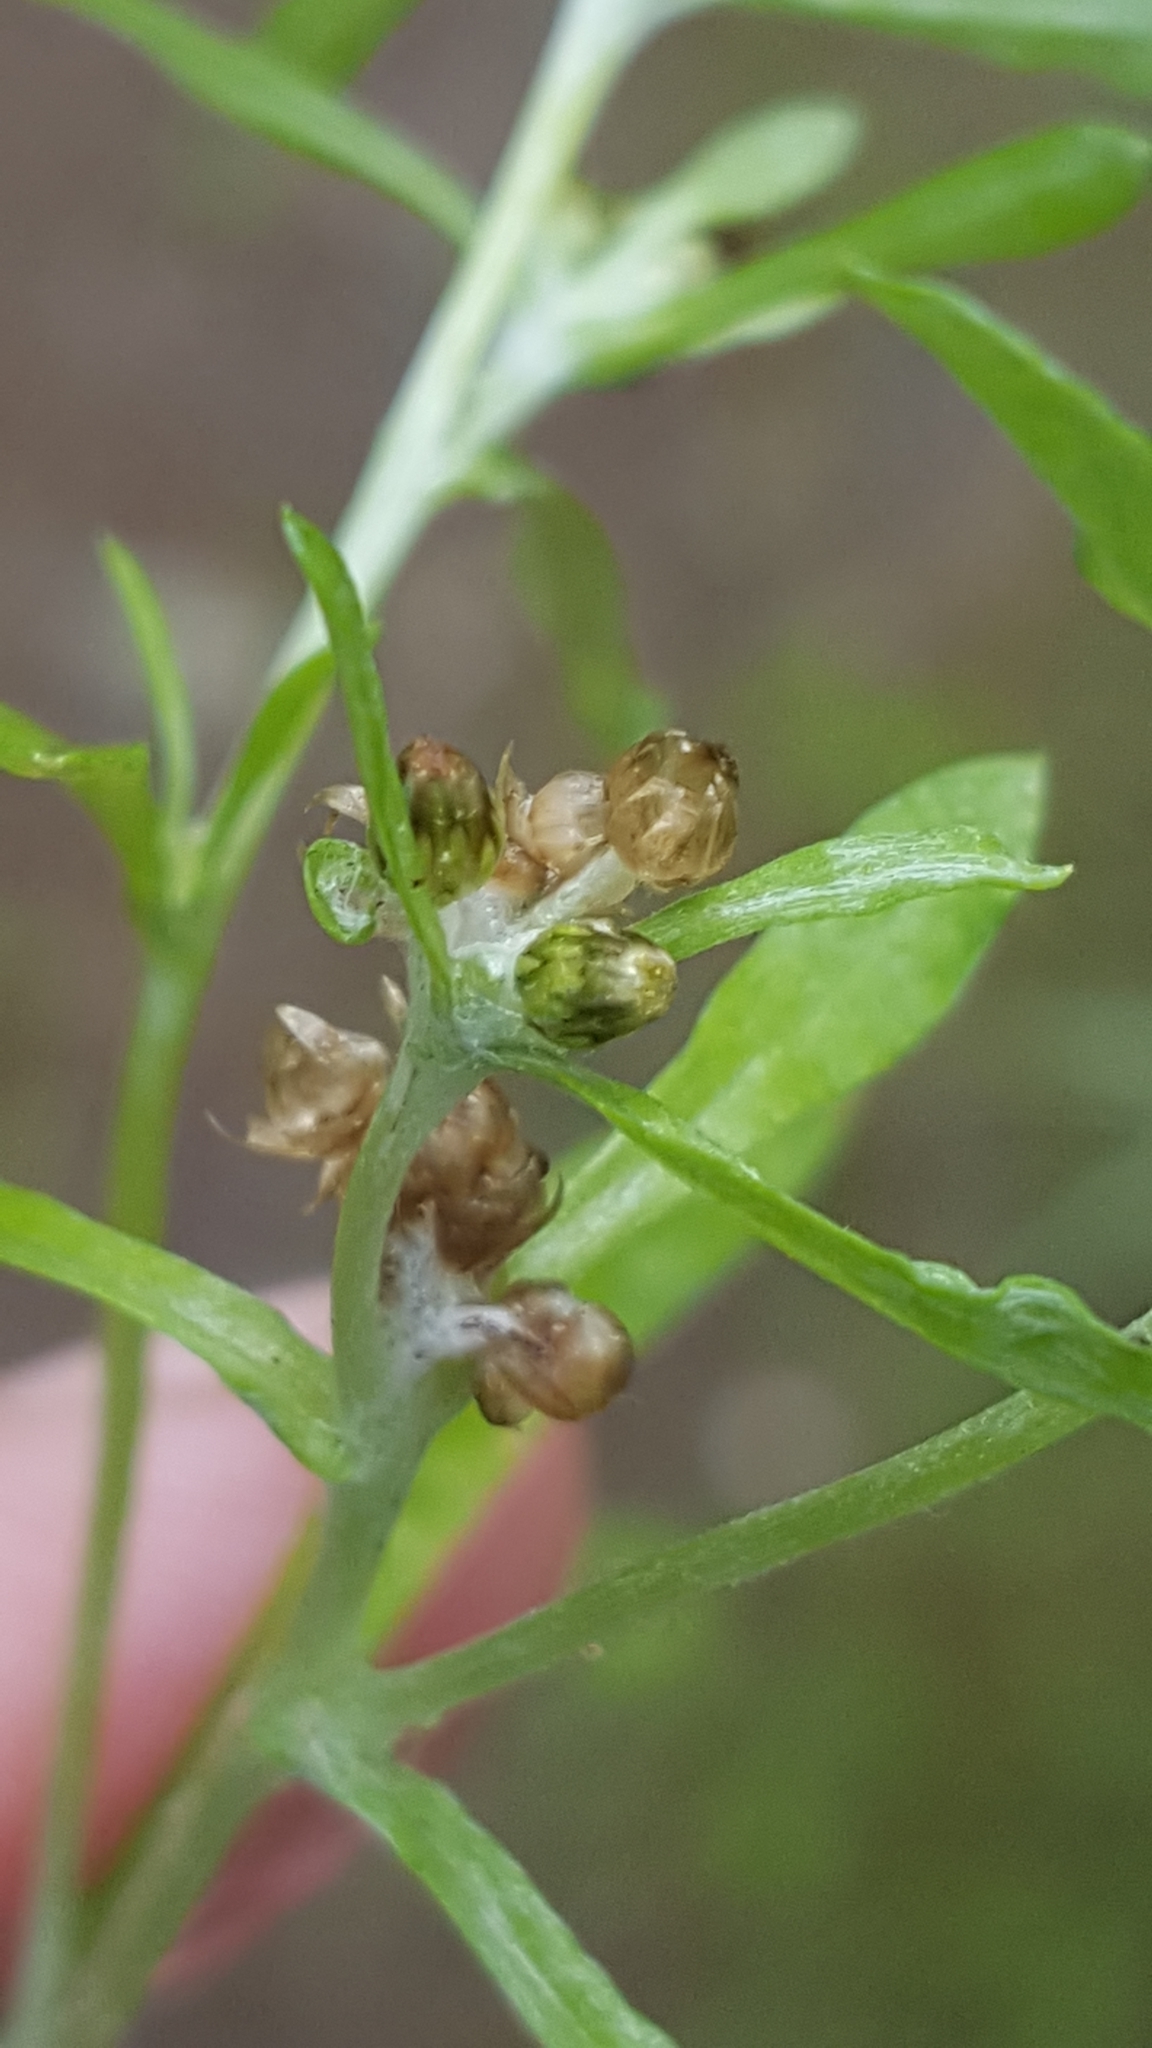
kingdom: Plantae
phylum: Tracheophyta
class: Magnoliopsida
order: Asterales
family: Asteraceae
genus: Gnaphalium
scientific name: Gnaphalium uliginosum
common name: Marsh cudweed
